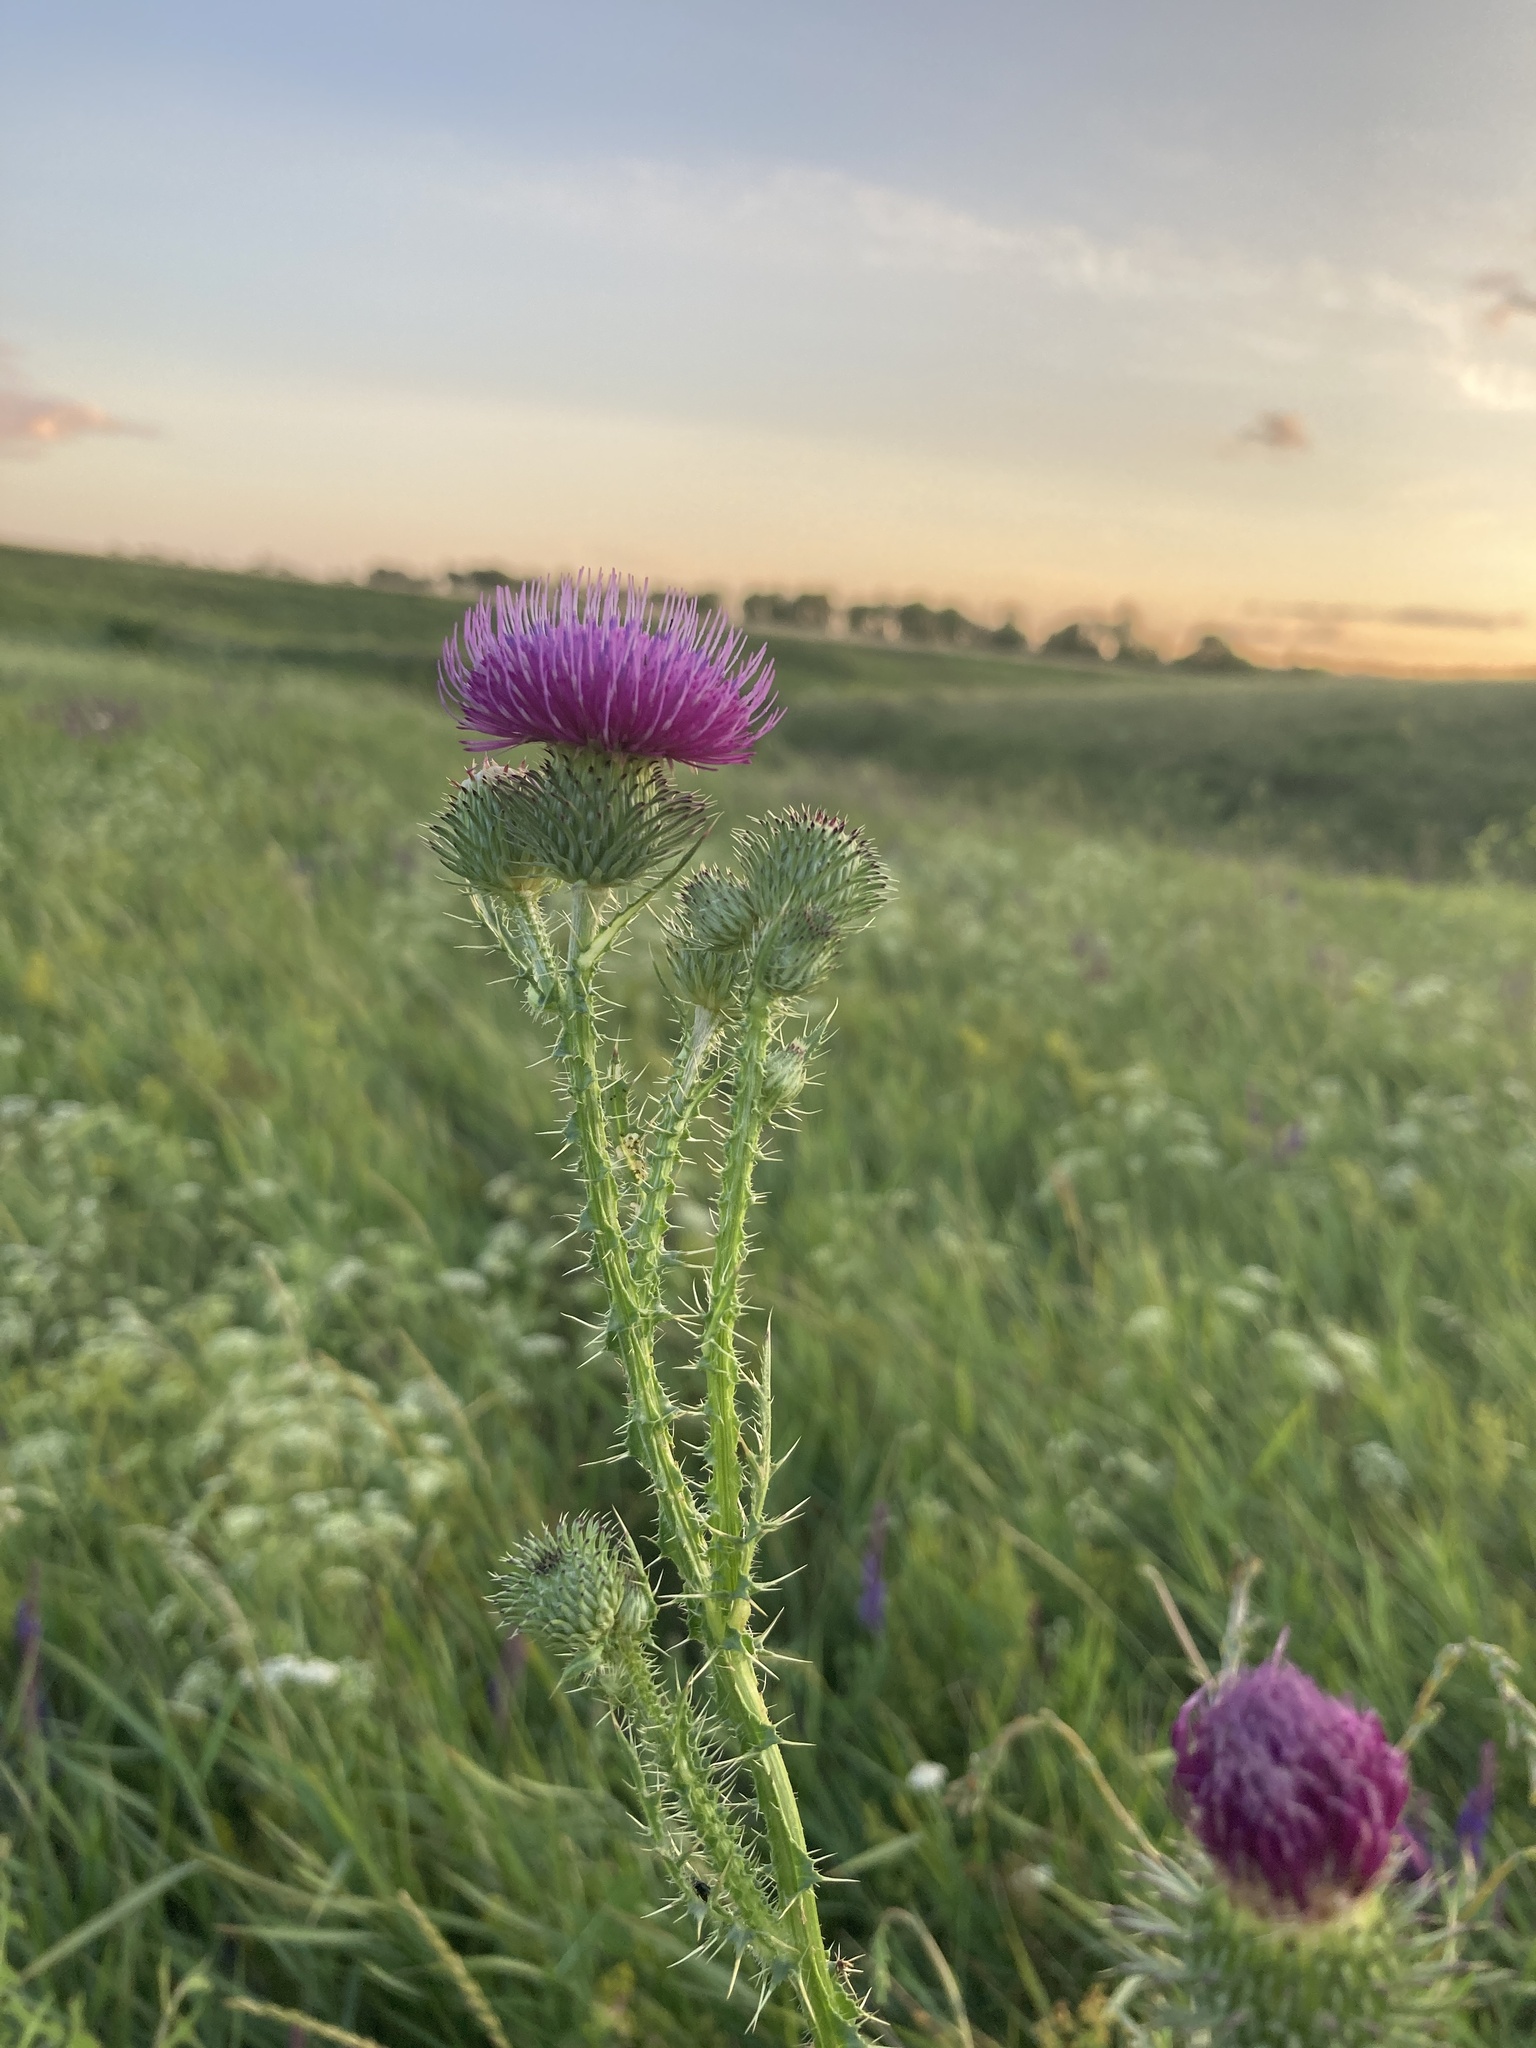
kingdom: Plantae
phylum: Tracheophyta
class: Magnoliopsida
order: Asterales
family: Asteraceae
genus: Carduus
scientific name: Carduus acanthoides
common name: Plumeless thistle
